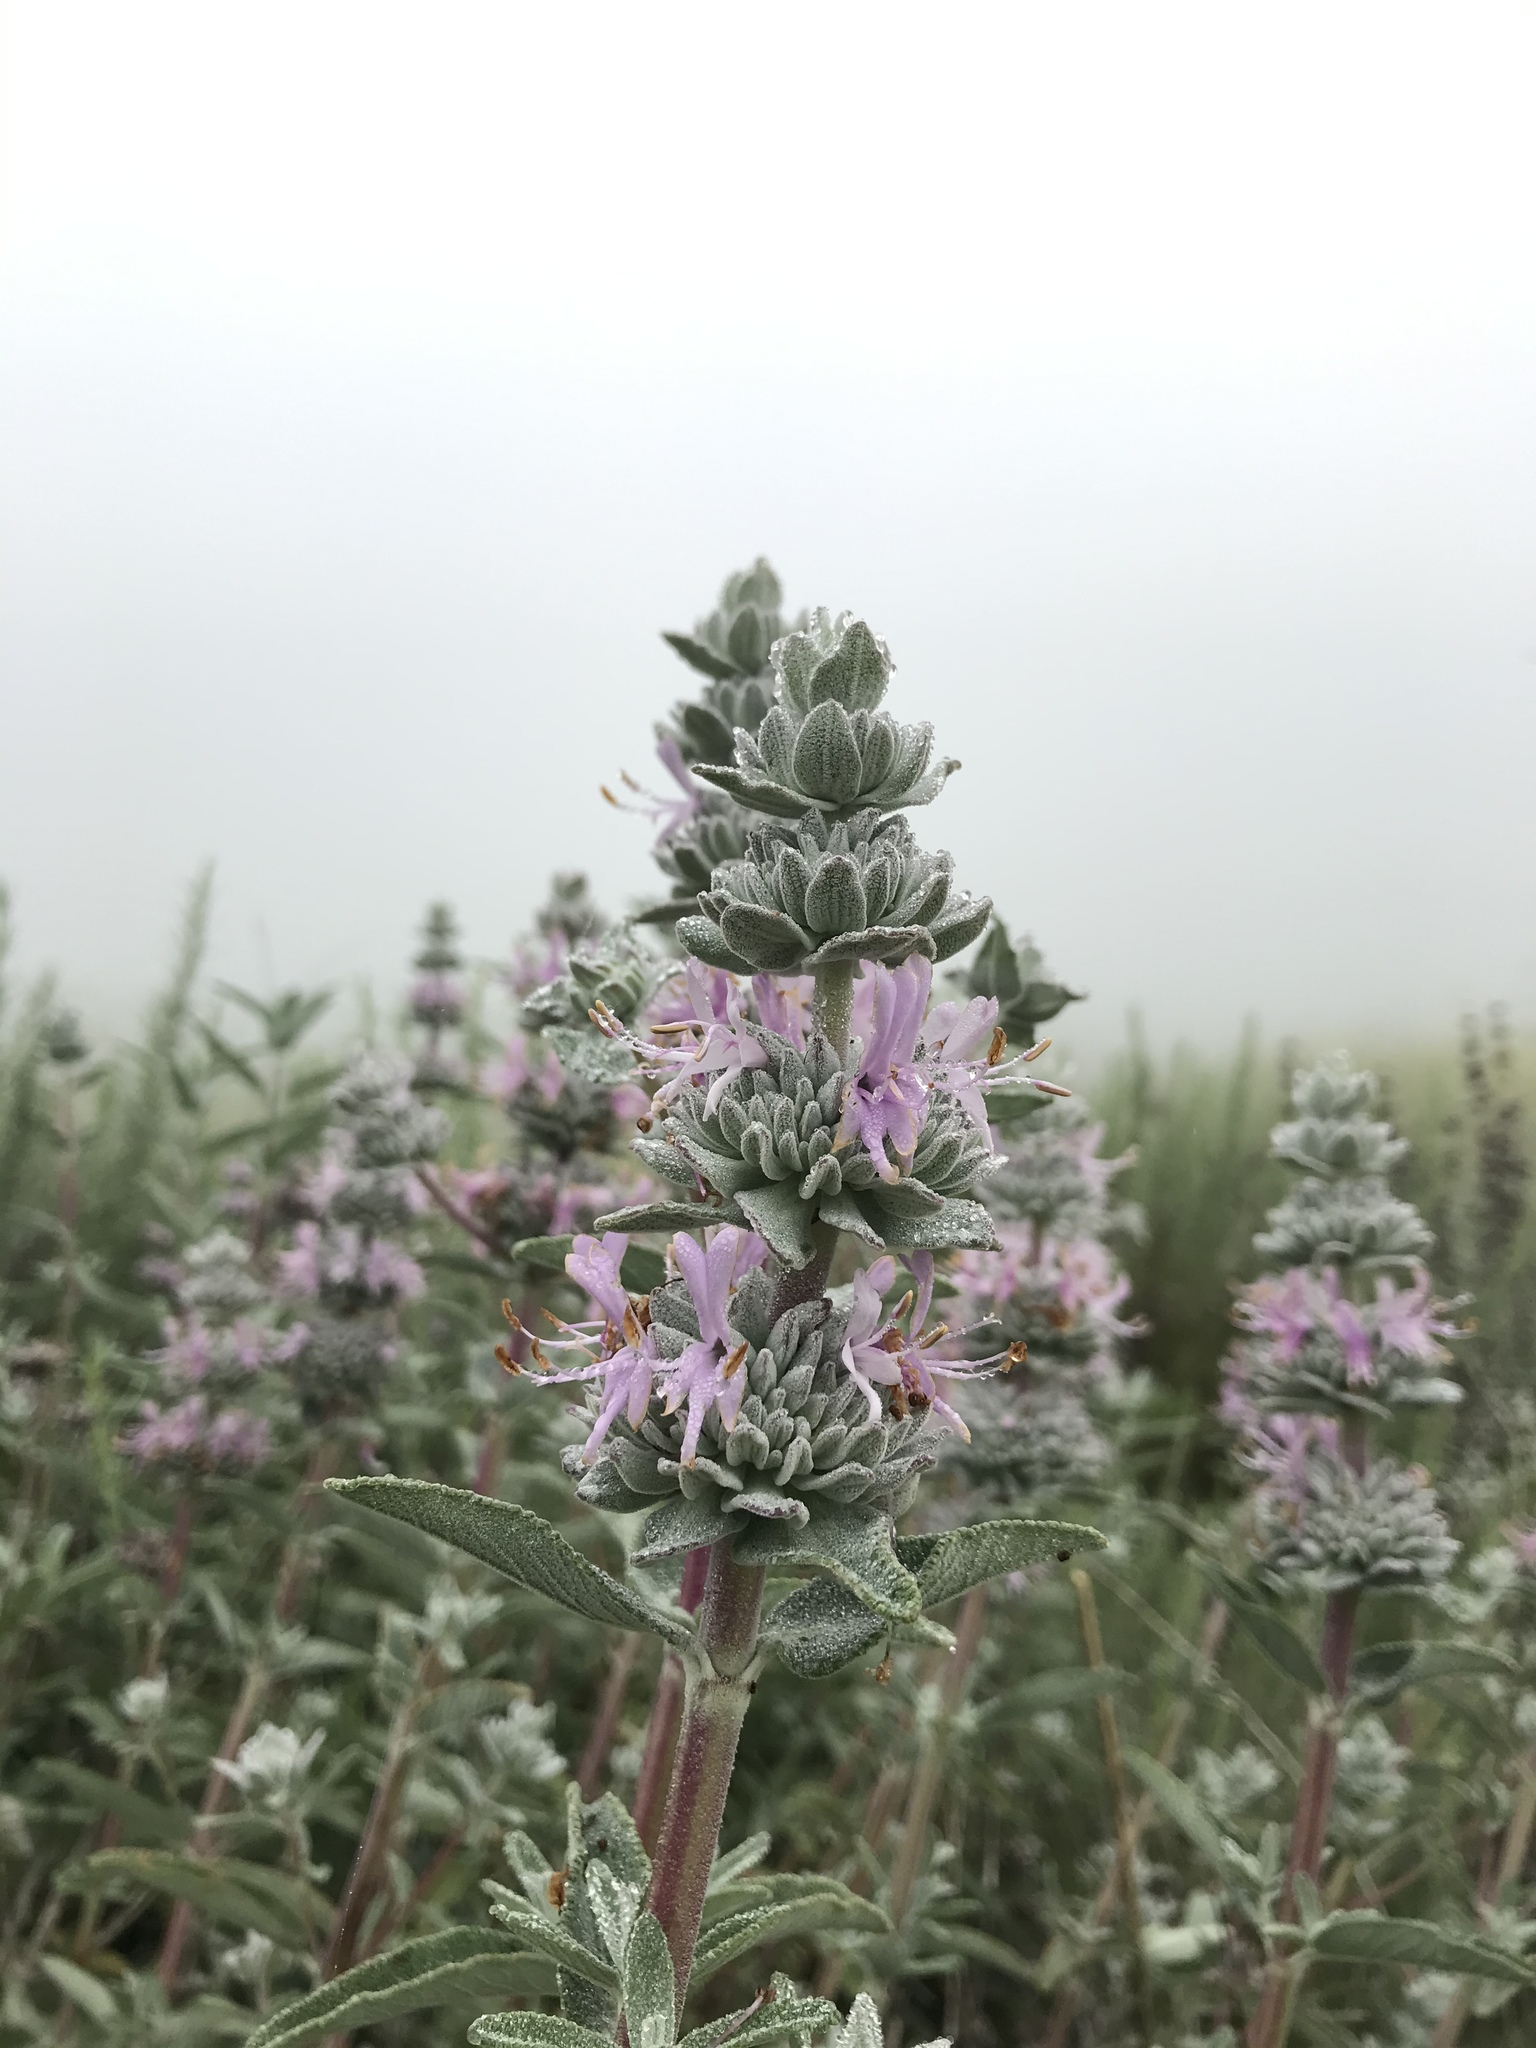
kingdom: Plantae
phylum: Tracheophyta
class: Magnoliopsida
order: Lamiales
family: Lamiaceae
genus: Salvia
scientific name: Salvia leucophylla
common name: Purple sage
